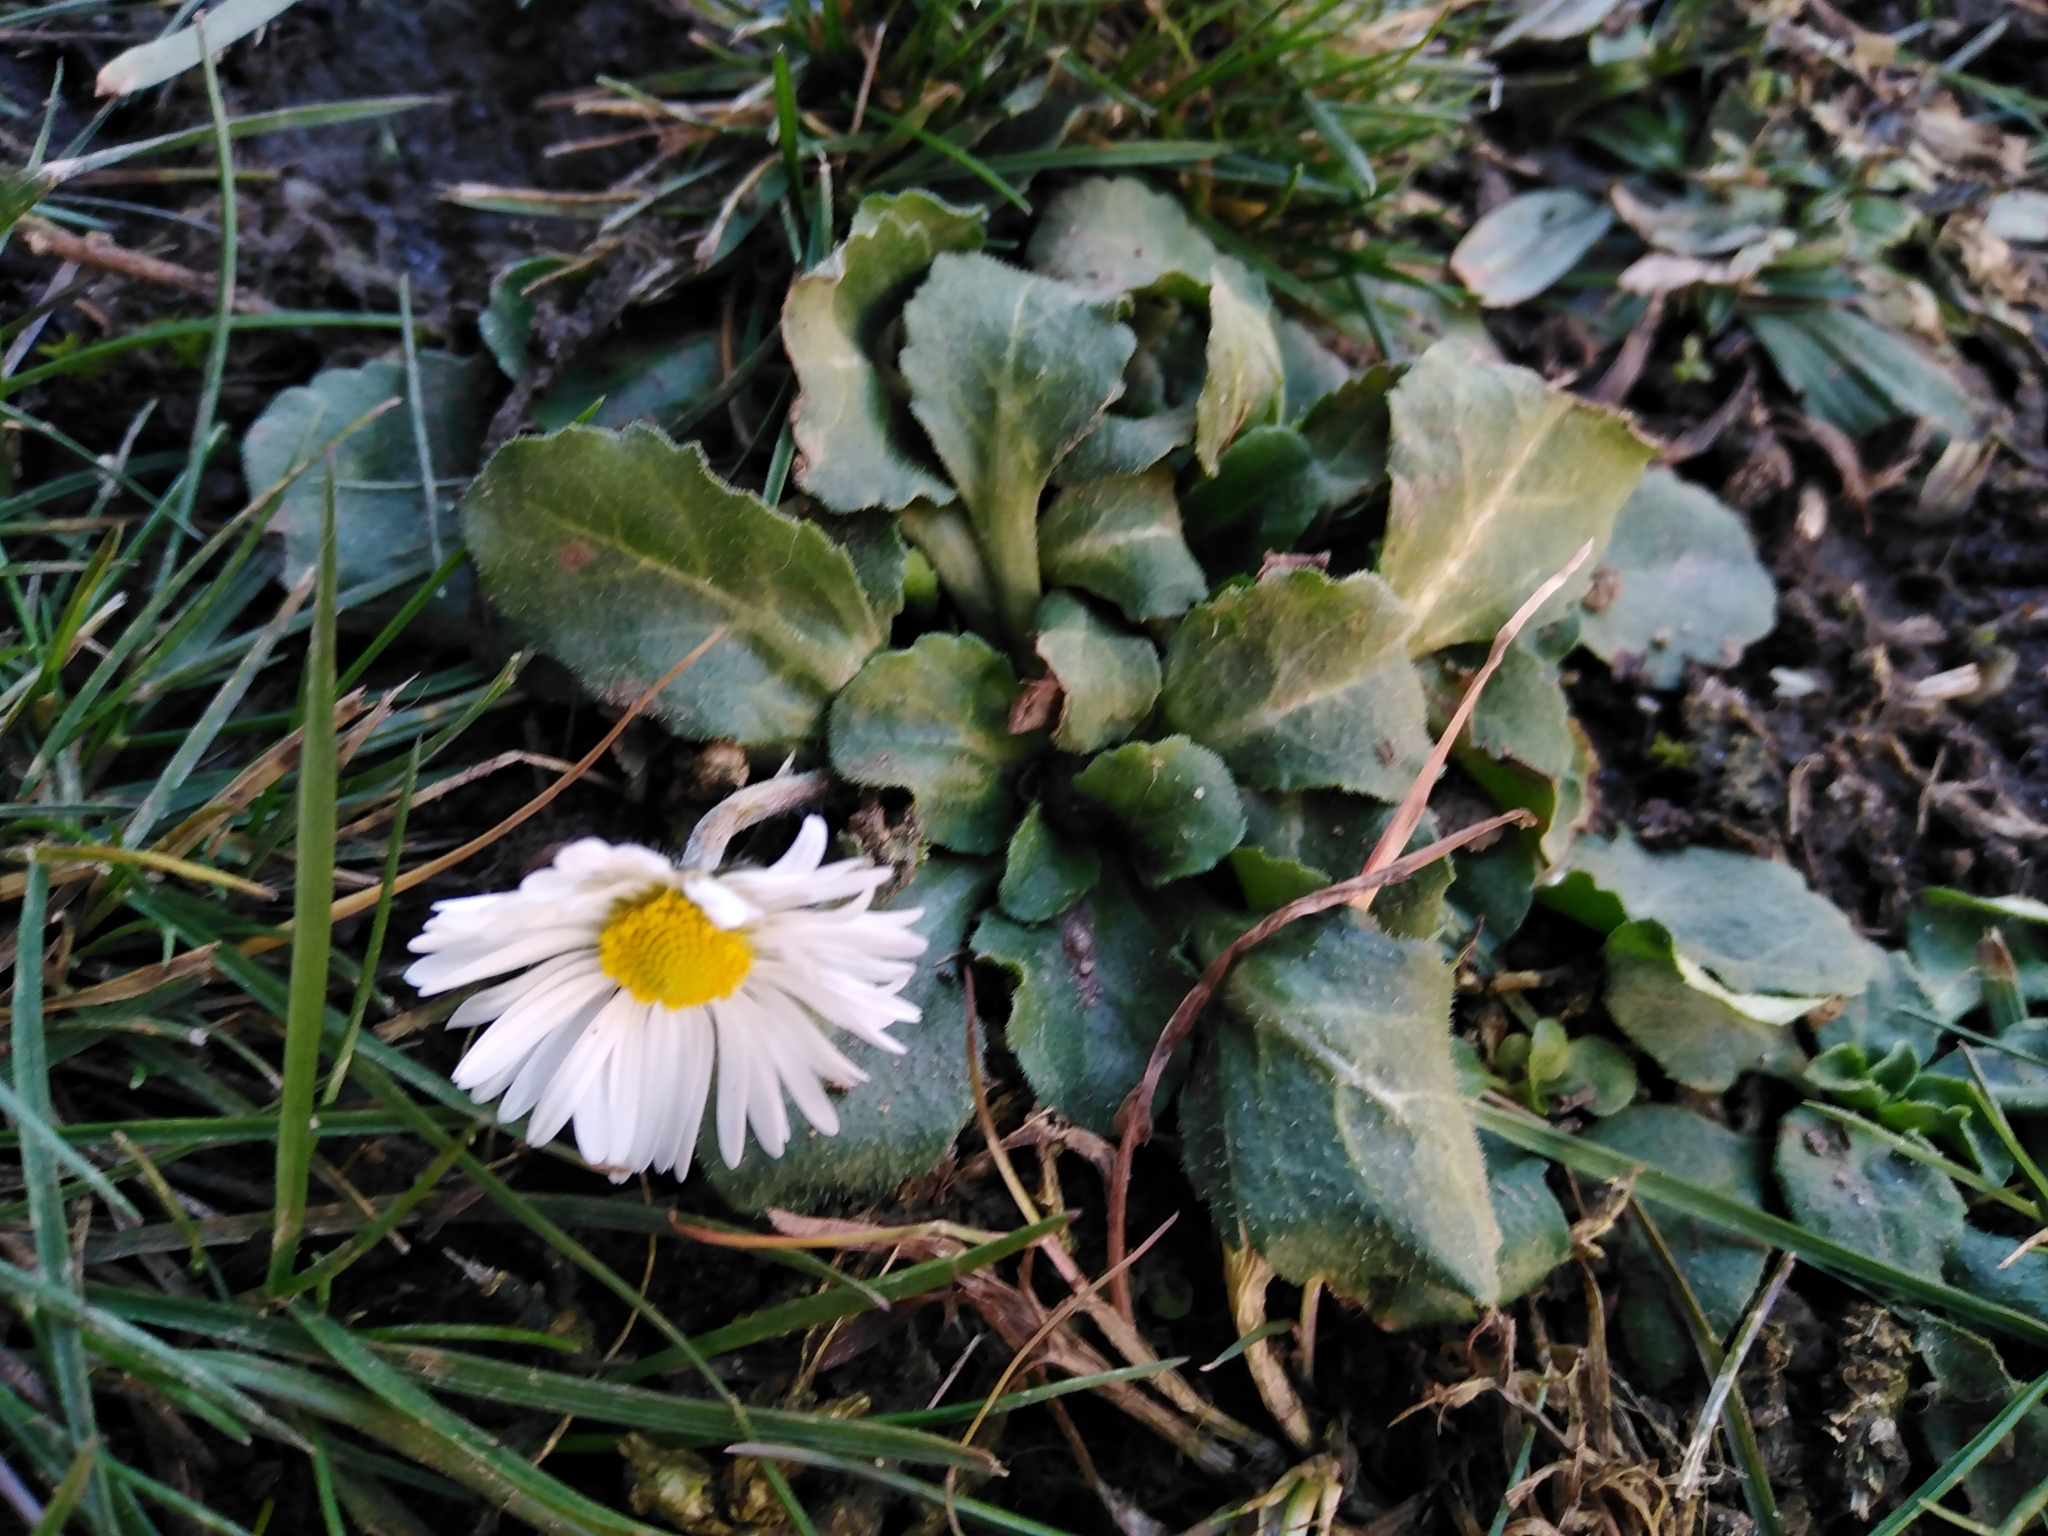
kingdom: Plantae
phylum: Tracheophyta
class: Magnoliopsida
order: Asterales
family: Asteraceae
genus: Bellis
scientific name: Bellis perennis
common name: Lawndaisy
